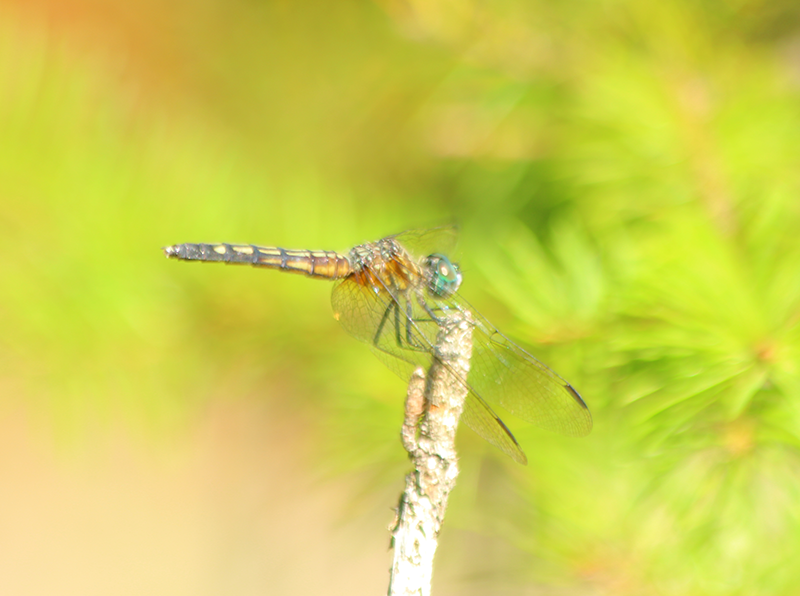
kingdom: Animalia
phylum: Arthropoda
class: Insecta
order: Odonata
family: Libellulidae
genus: Pachydiplax
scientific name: Pachydiplax longipennis
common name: Blue dasher
